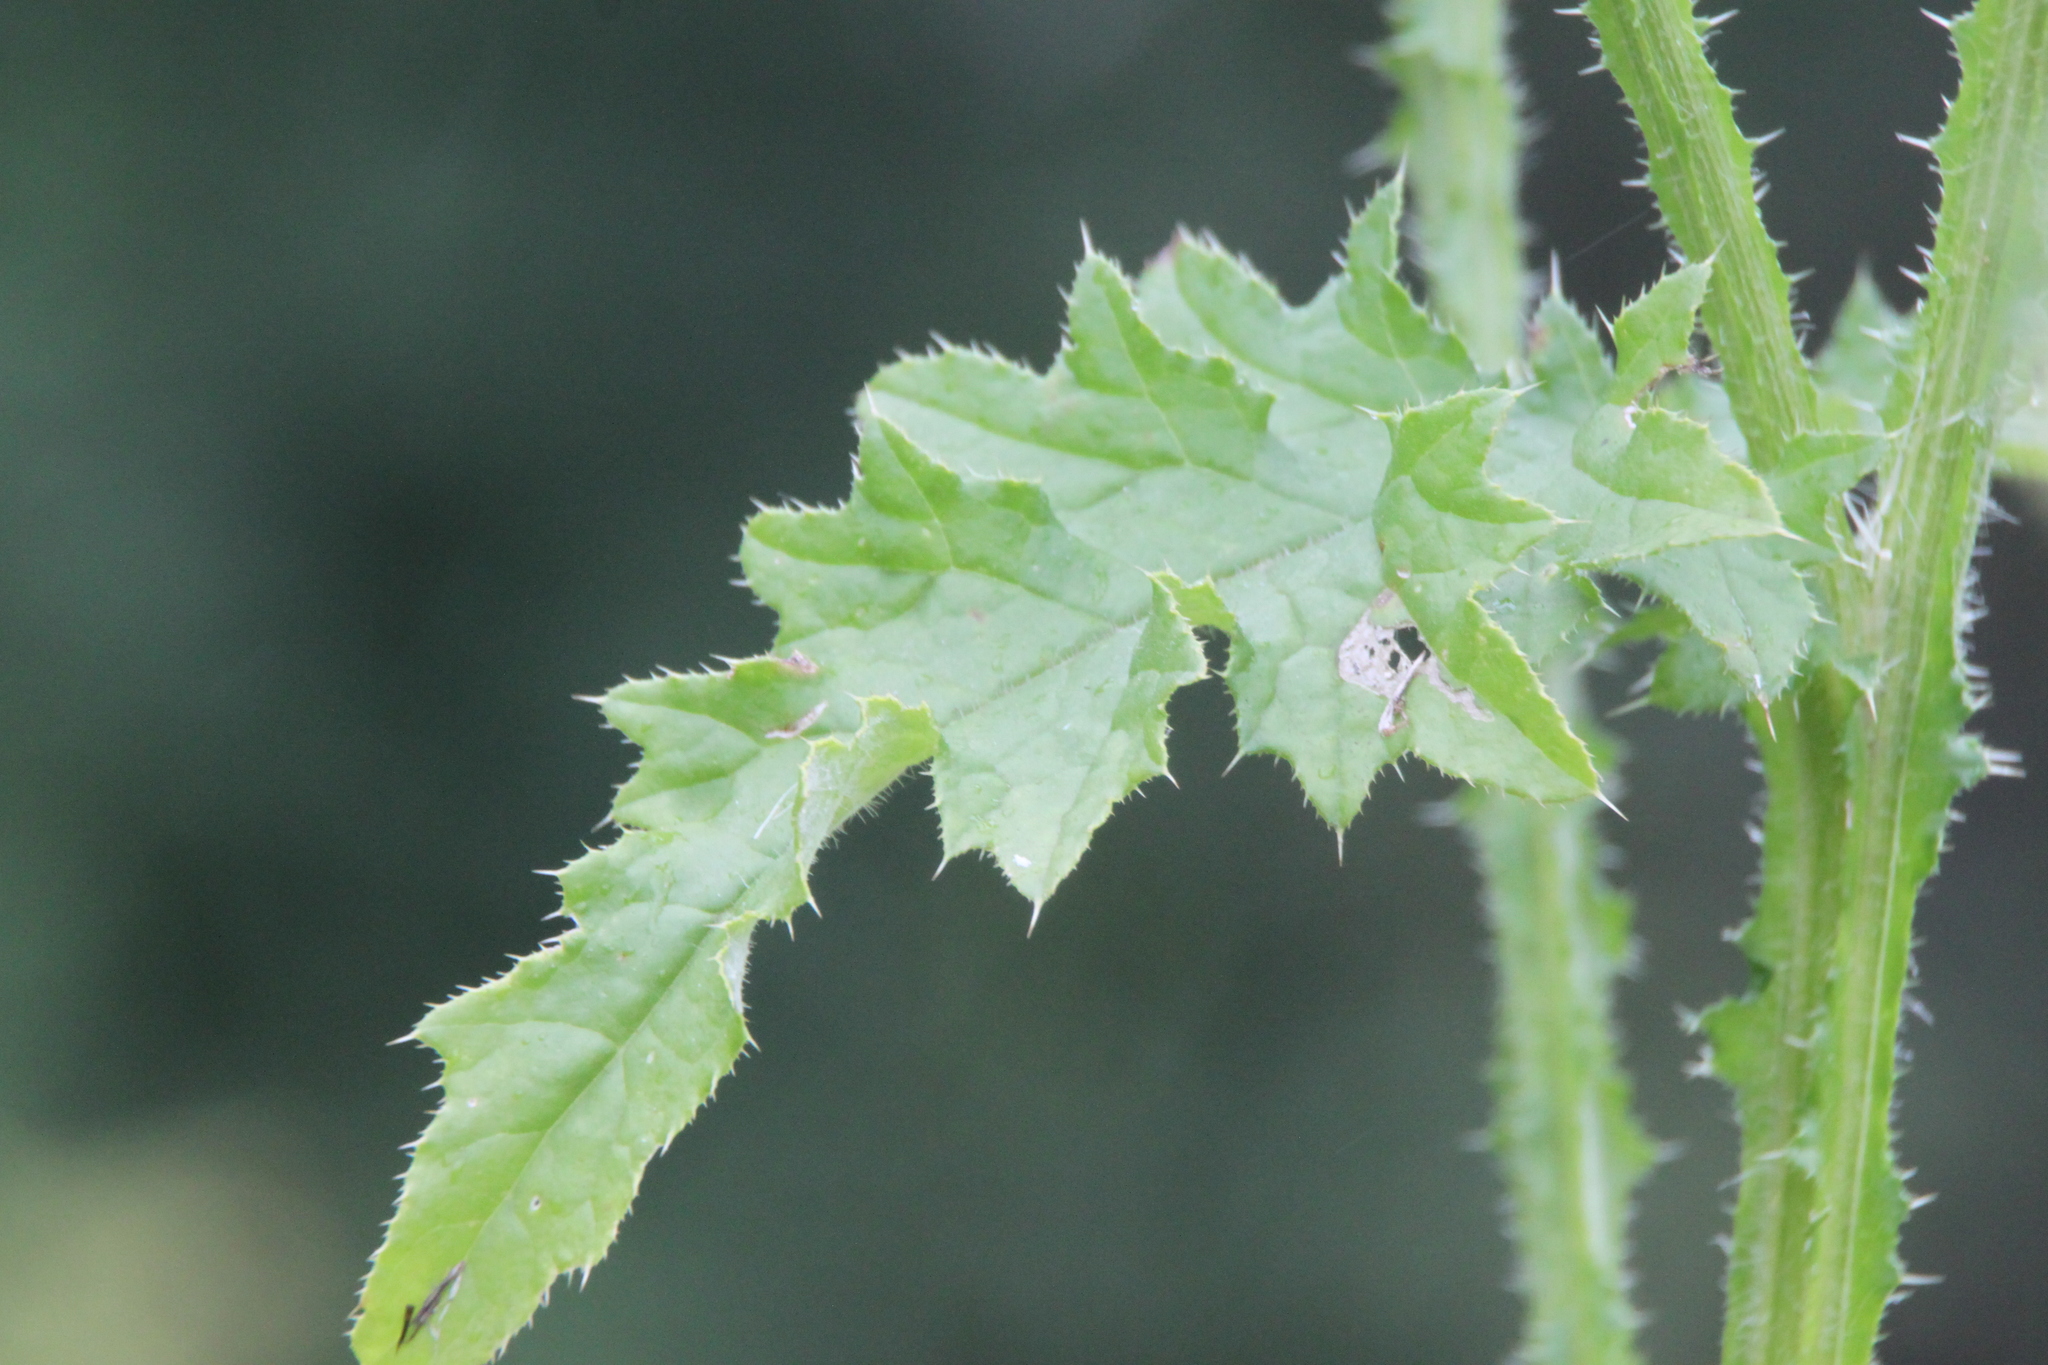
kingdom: Plantae
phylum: Tracheophyta
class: Magnoliopsida
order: Asterales
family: Asteraceae
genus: Carduus
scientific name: Carduus crispus
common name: Welted thistle
